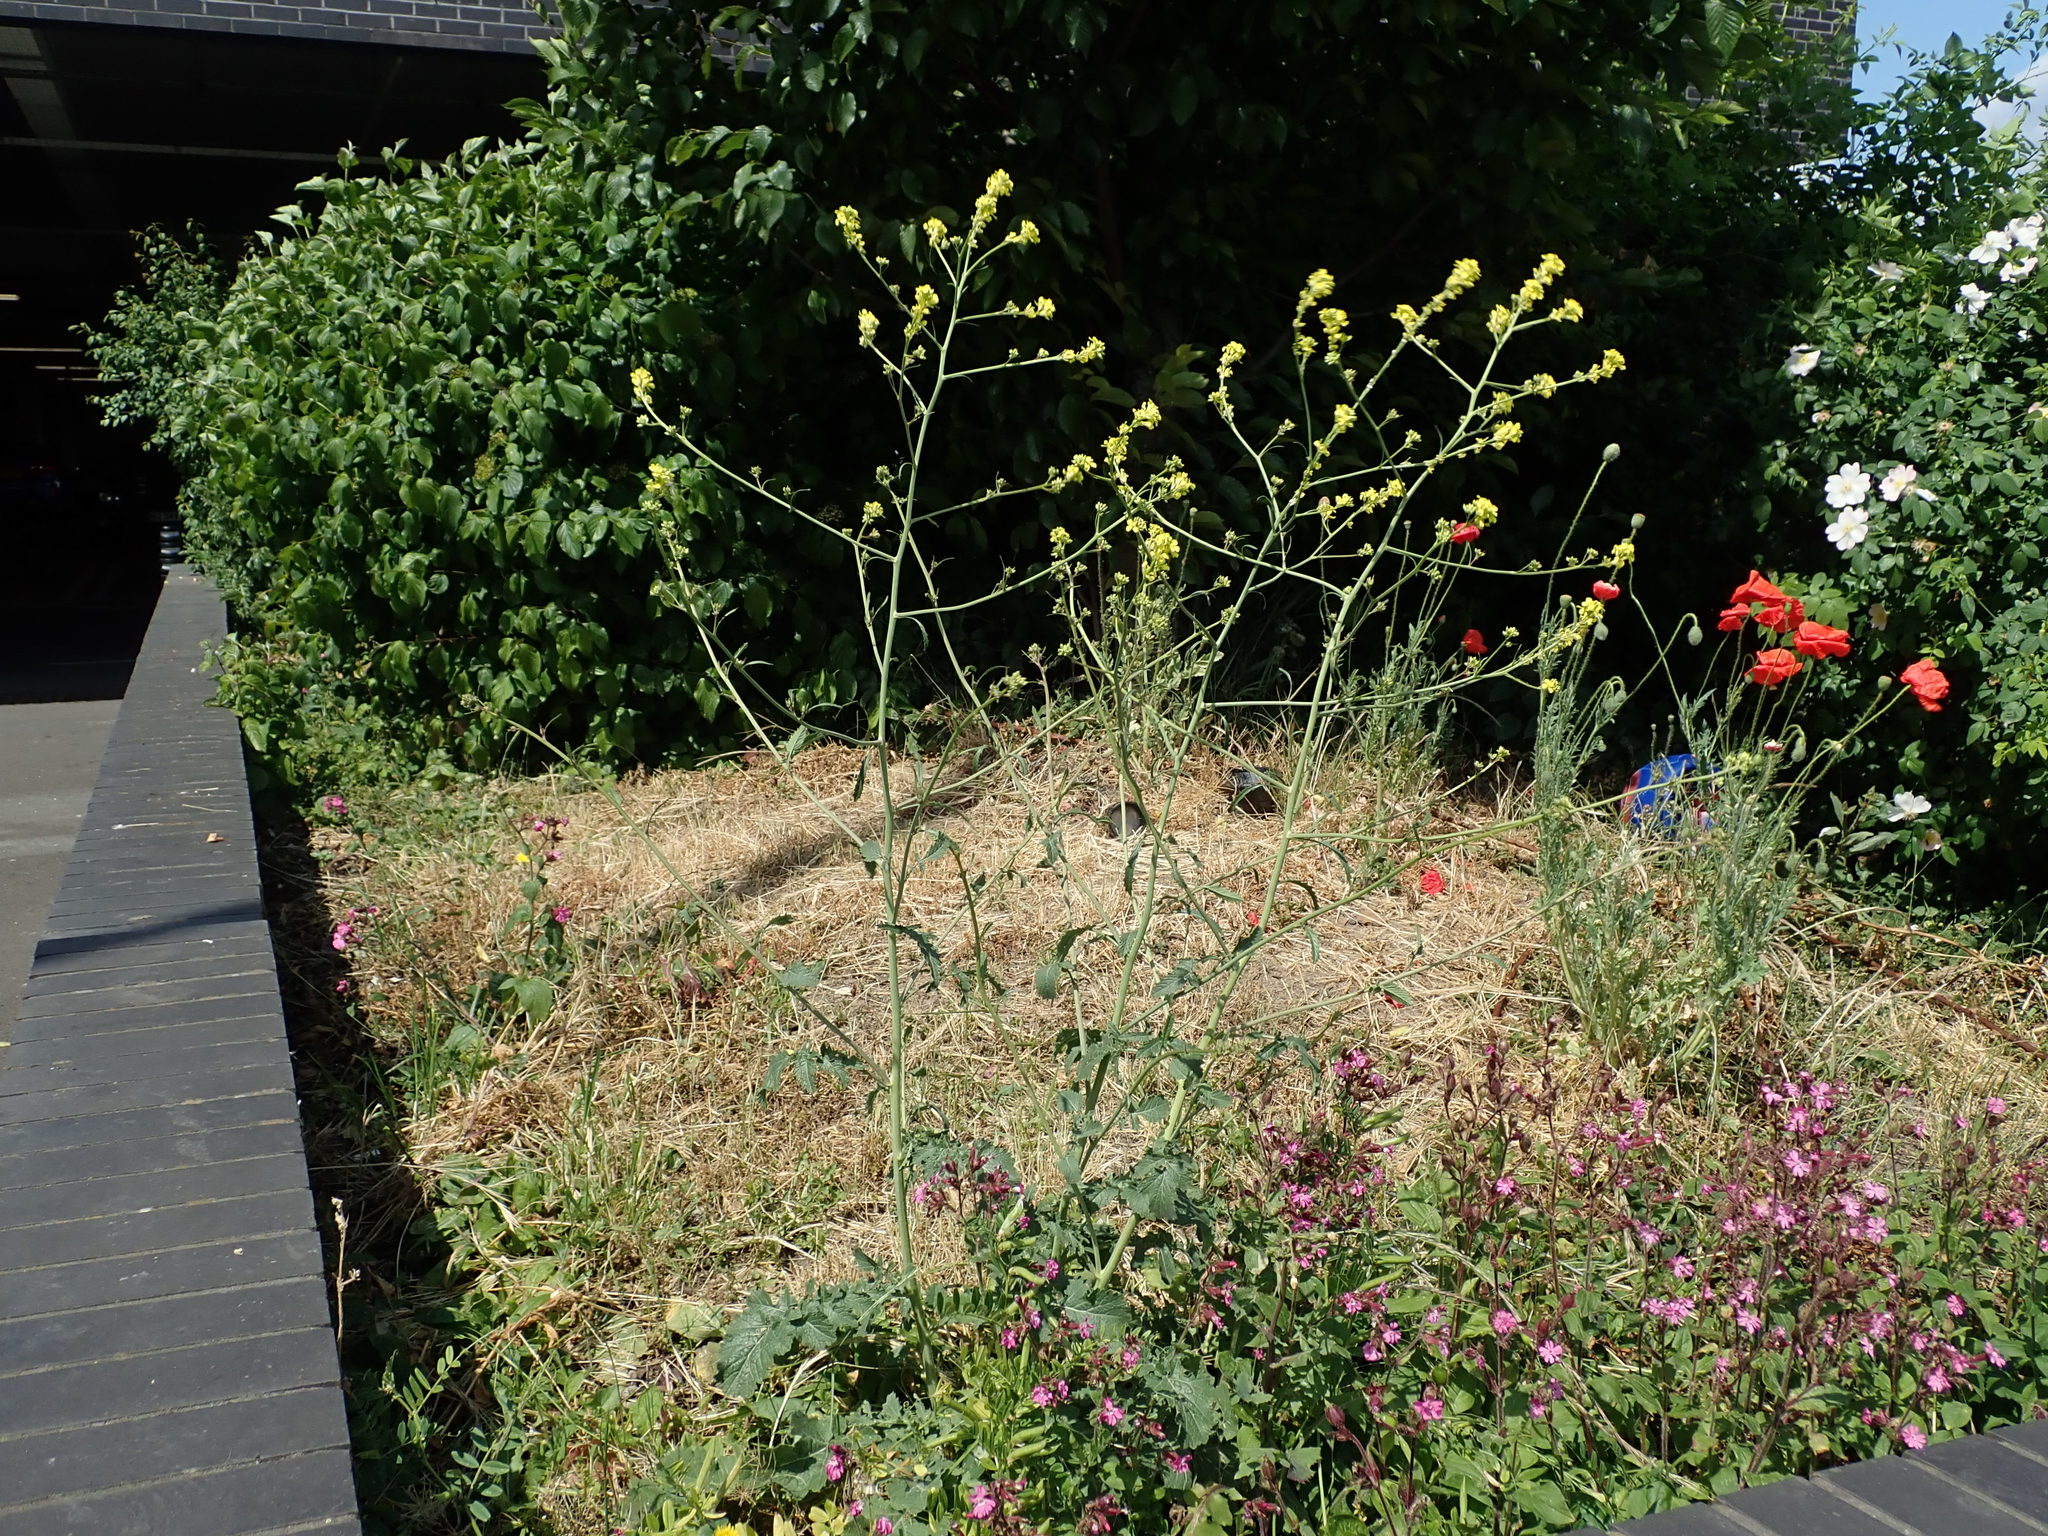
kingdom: Plantae
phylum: Tracheophyta
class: Magnoliopsida
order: Brassicales
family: Brassicaceae
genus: Hirschfeldia
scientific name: Hirschfeldia incana
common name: Hoary mustard
